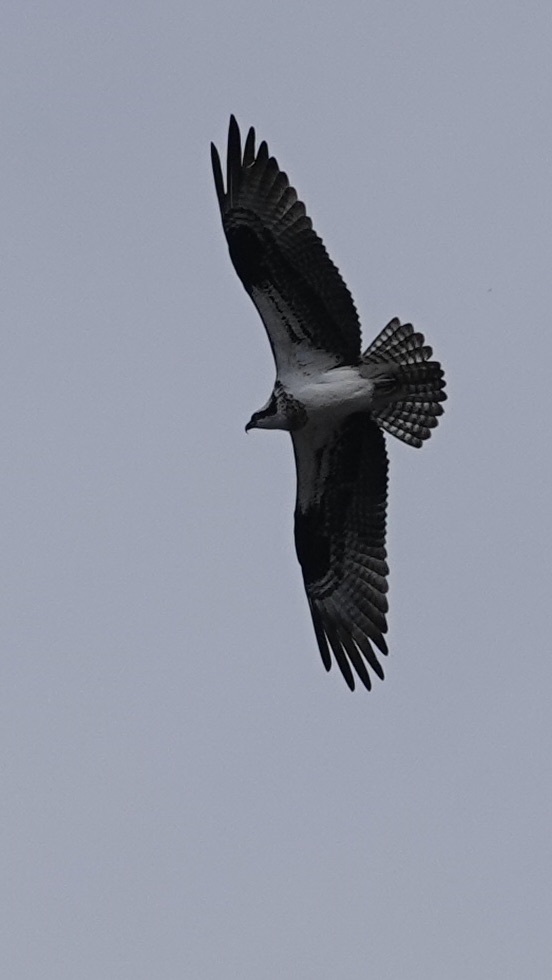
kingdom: Animalia
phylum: Chordata
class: Aves
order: Accipitriformes
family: Pandionidae
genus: Pandion
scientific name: Pandion haliaetus
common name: Osprey
